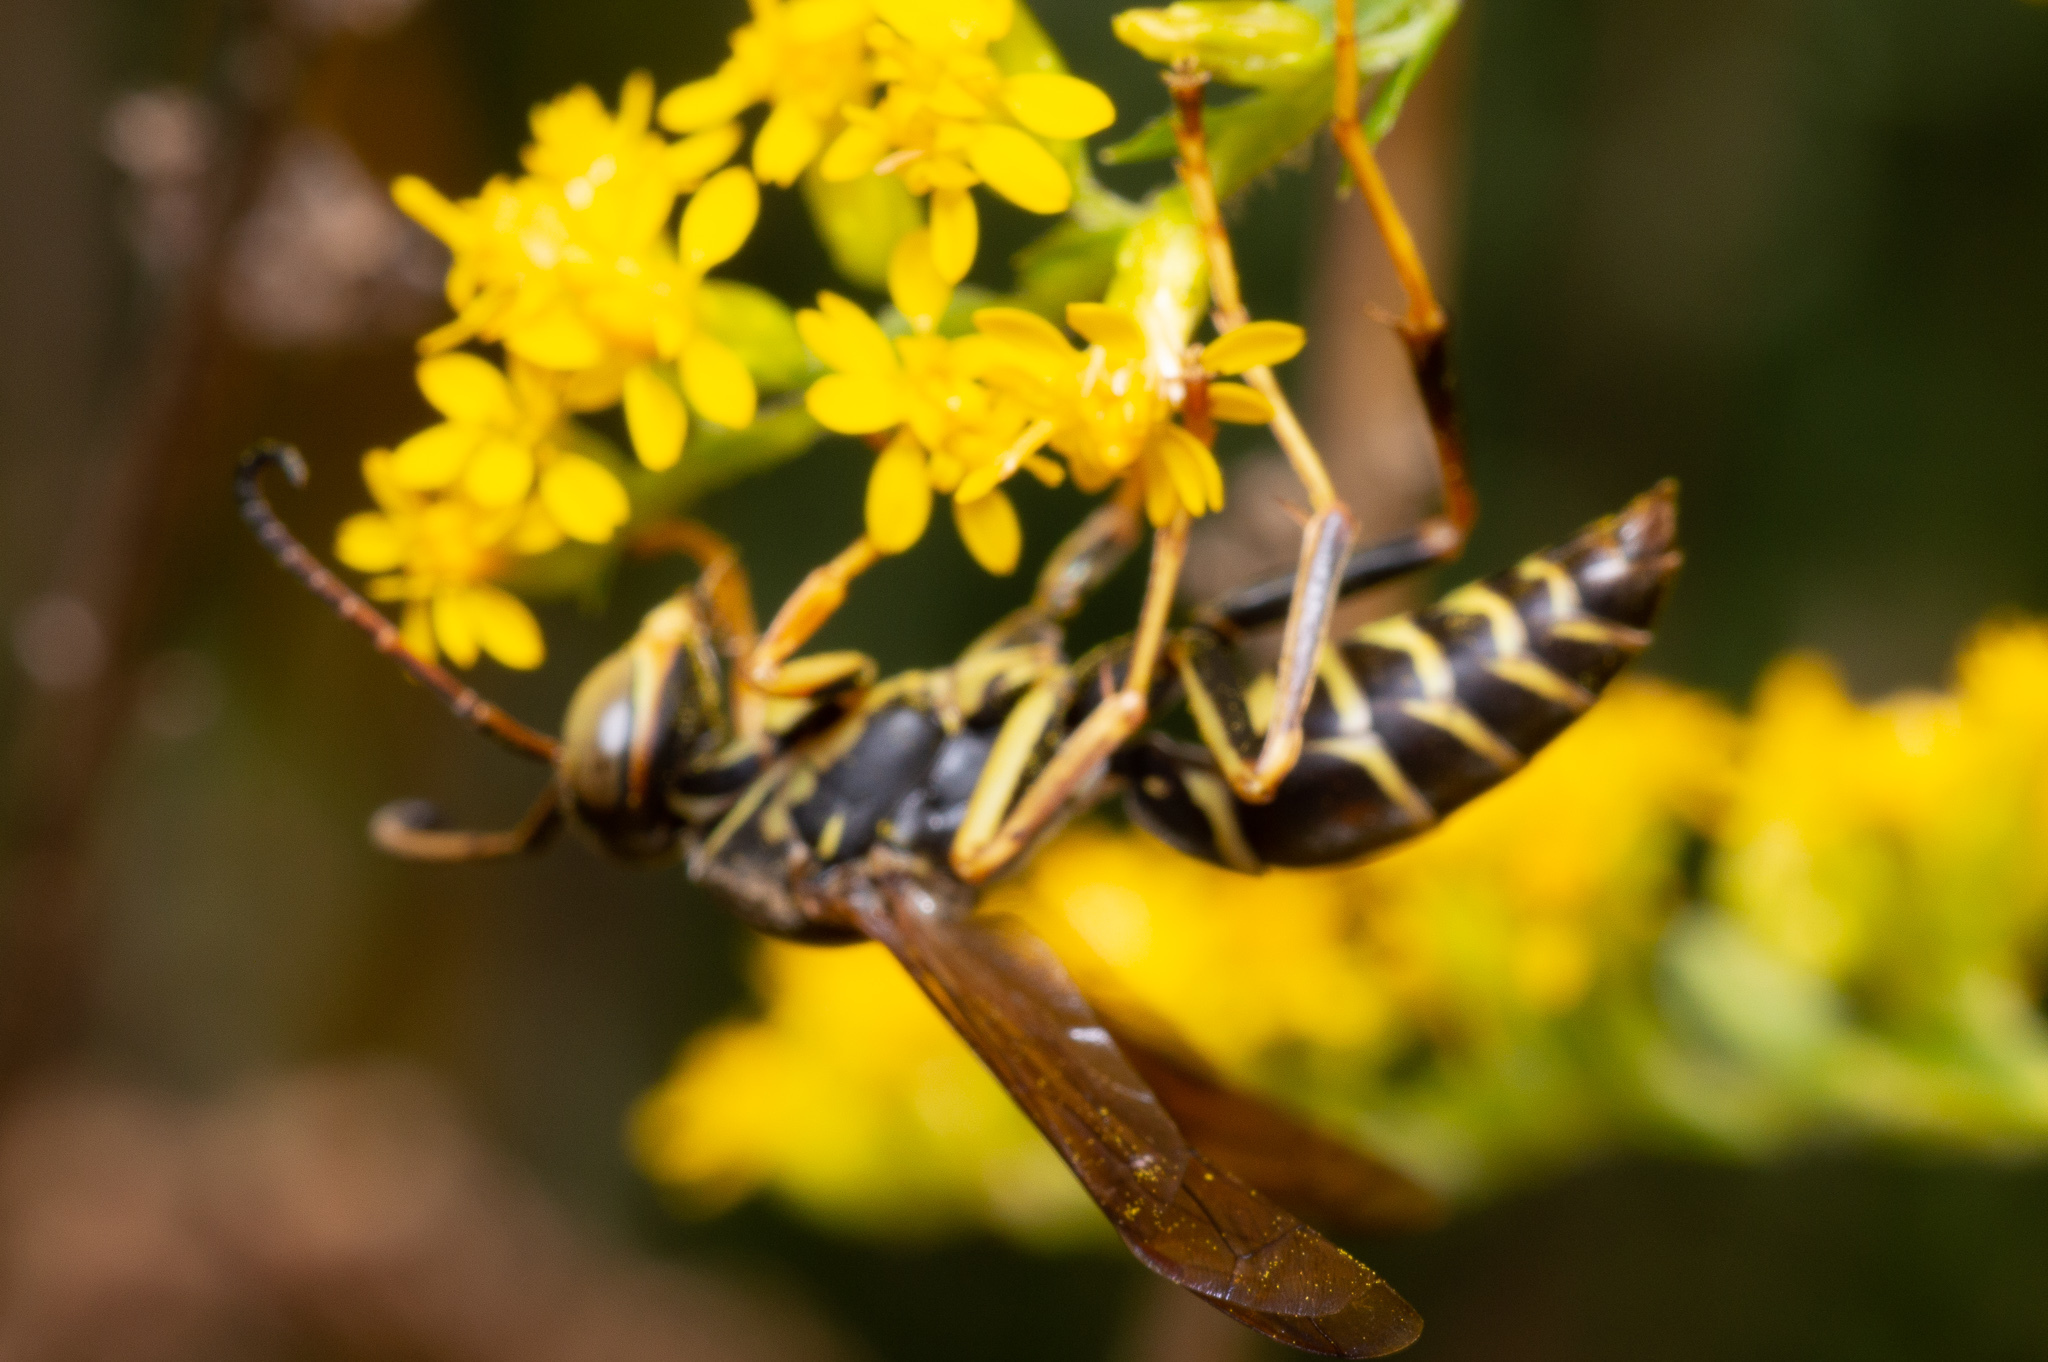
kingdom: Animalia
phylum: Arthropoda
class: Insecta
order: Hymenoptera
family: Eumenidae
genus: Polistes
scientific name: Polistes fuscatus
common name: Dark paper wasp
